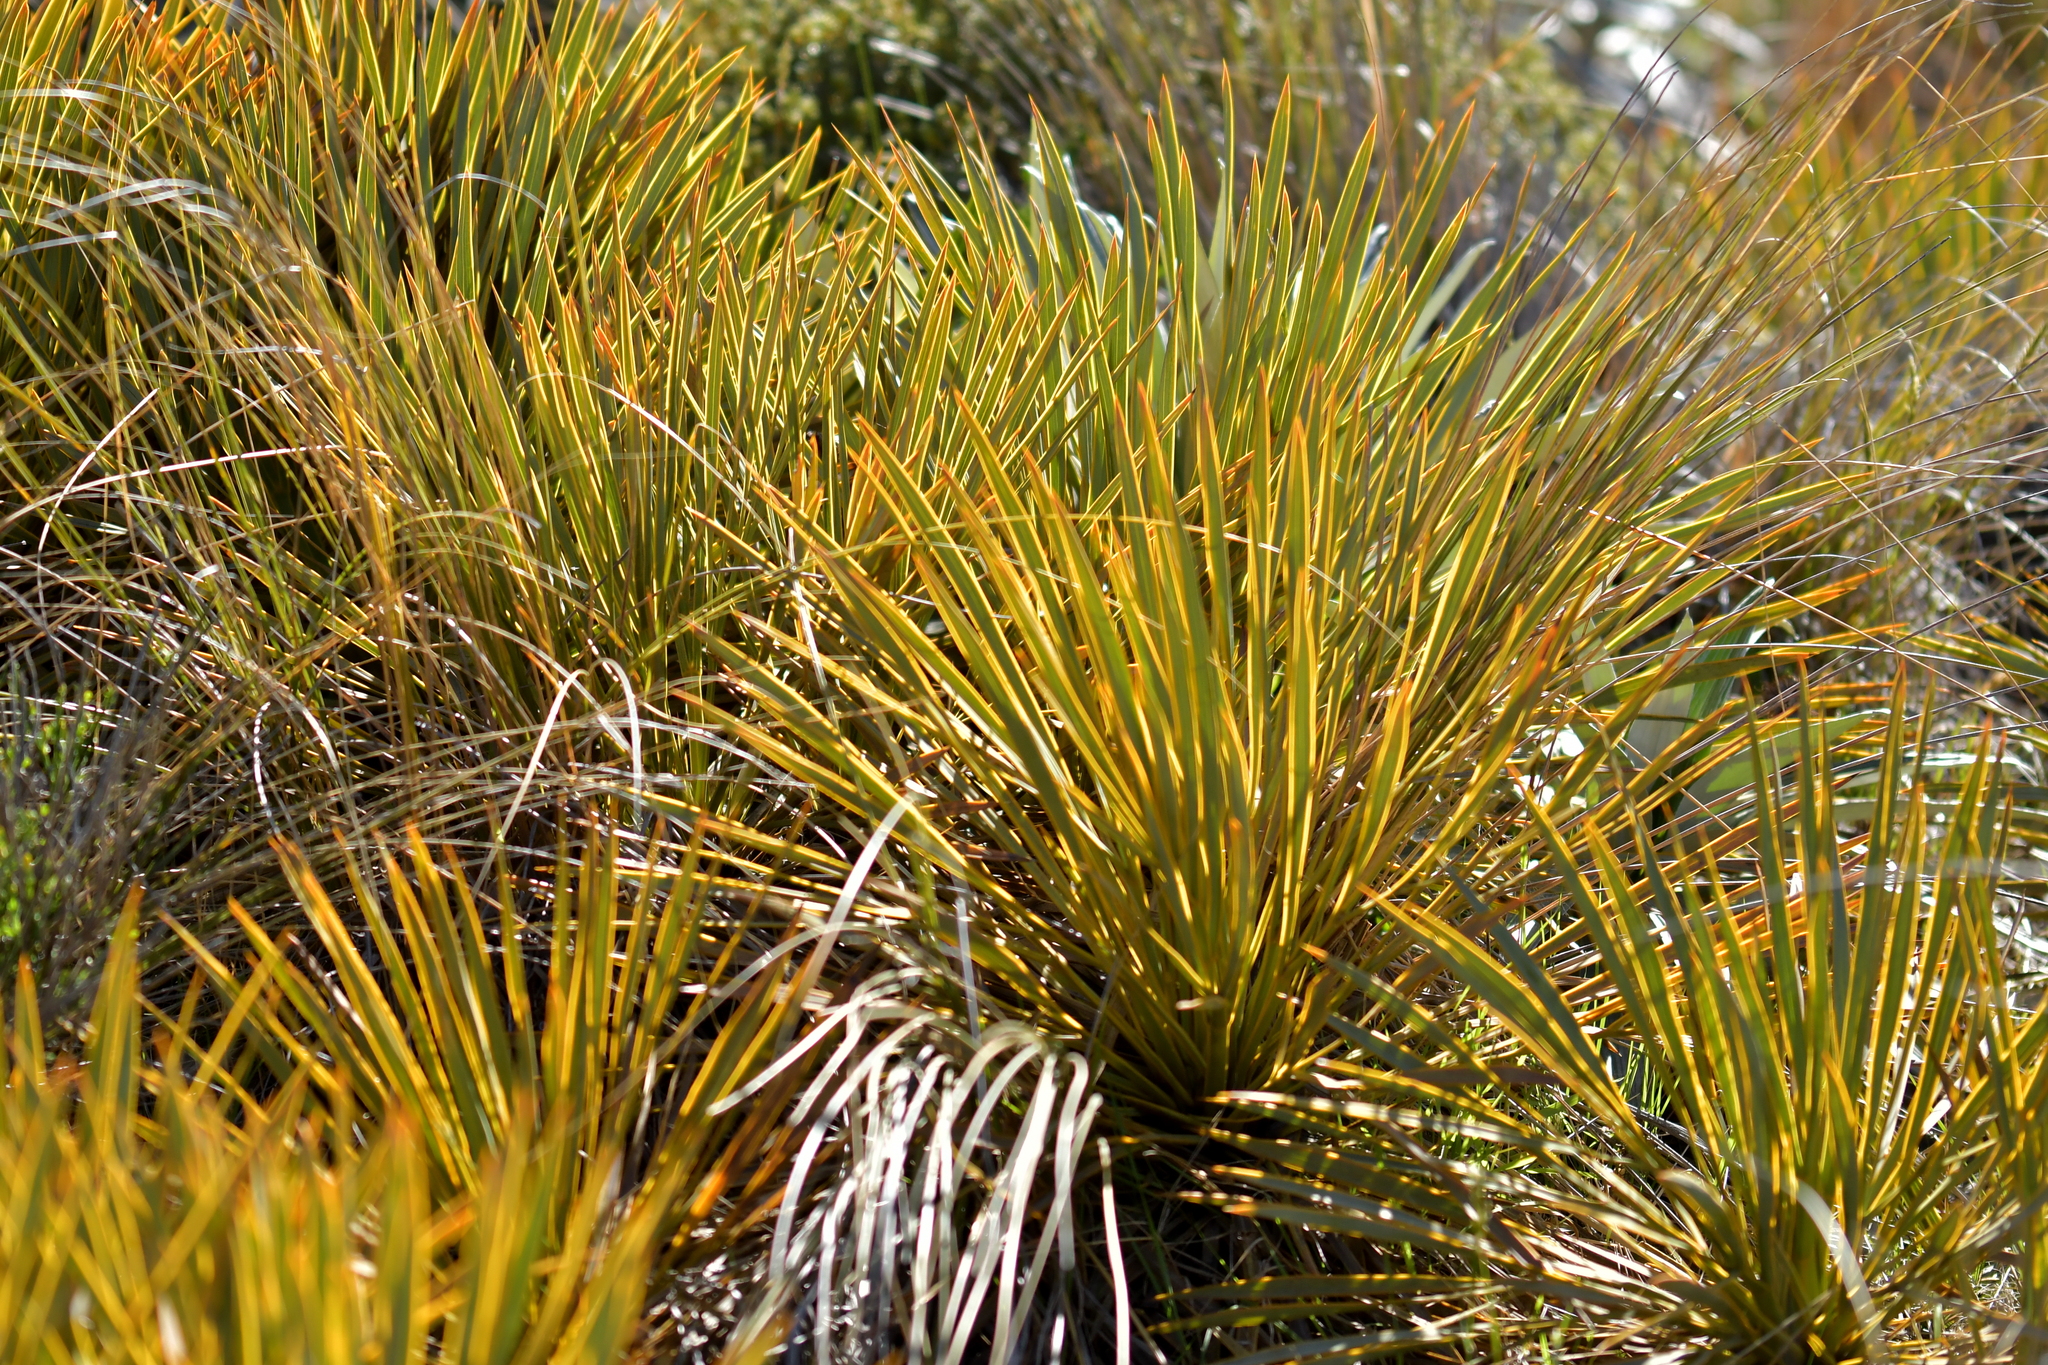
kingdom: Plantae
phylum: Tracheophyta
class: Magnoliopsida
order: Apiales
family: Apiaceae
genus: Aciphylla
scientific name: Aciphylla aurea
